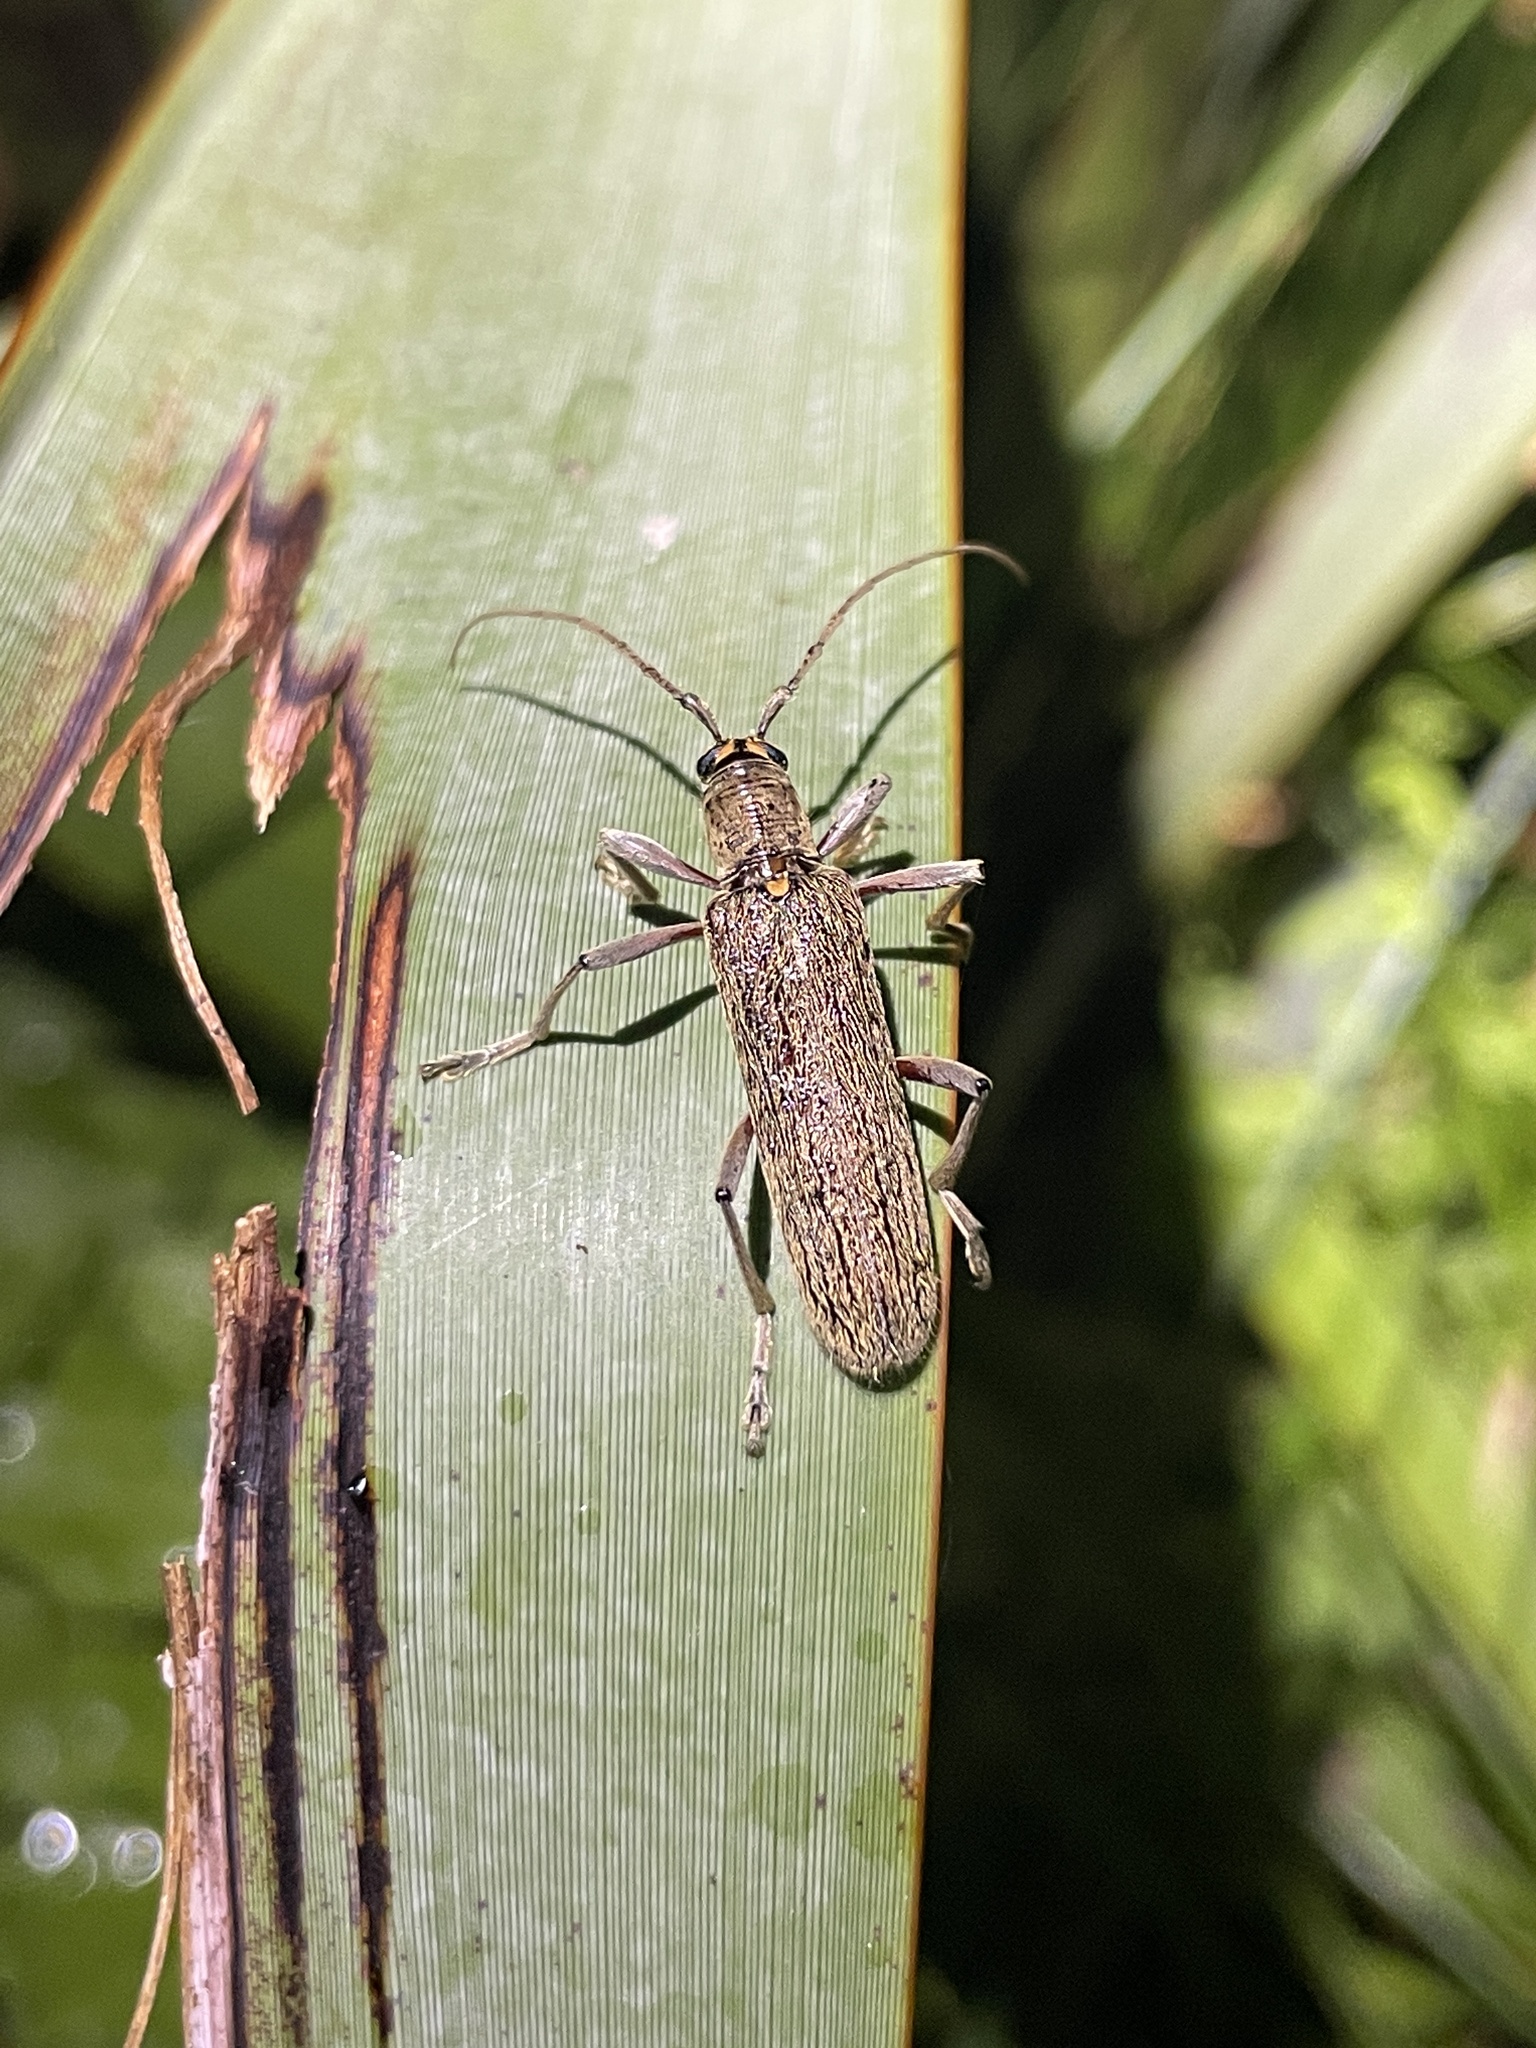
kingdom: Animalia
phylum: Arthropoda
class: Insecta
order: Coleoptera
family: Cerambycidae
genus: Oemona
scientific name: Oemona hirta
